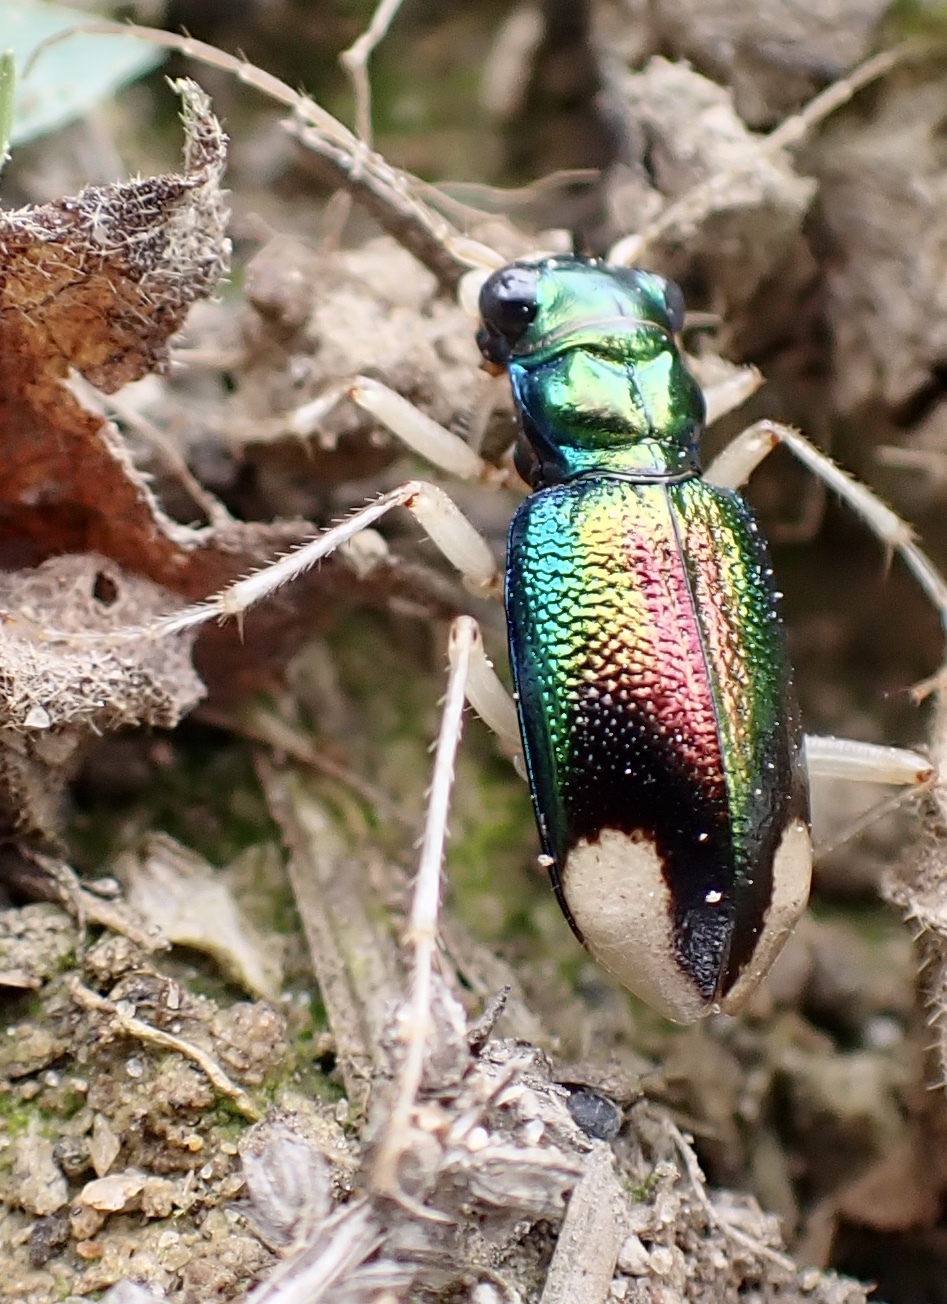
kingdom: Animalia
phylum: Arthropoda
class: Insecta
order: Coleoptera
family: Carabidae
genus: Tetracha
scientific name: Tetracha carolina
